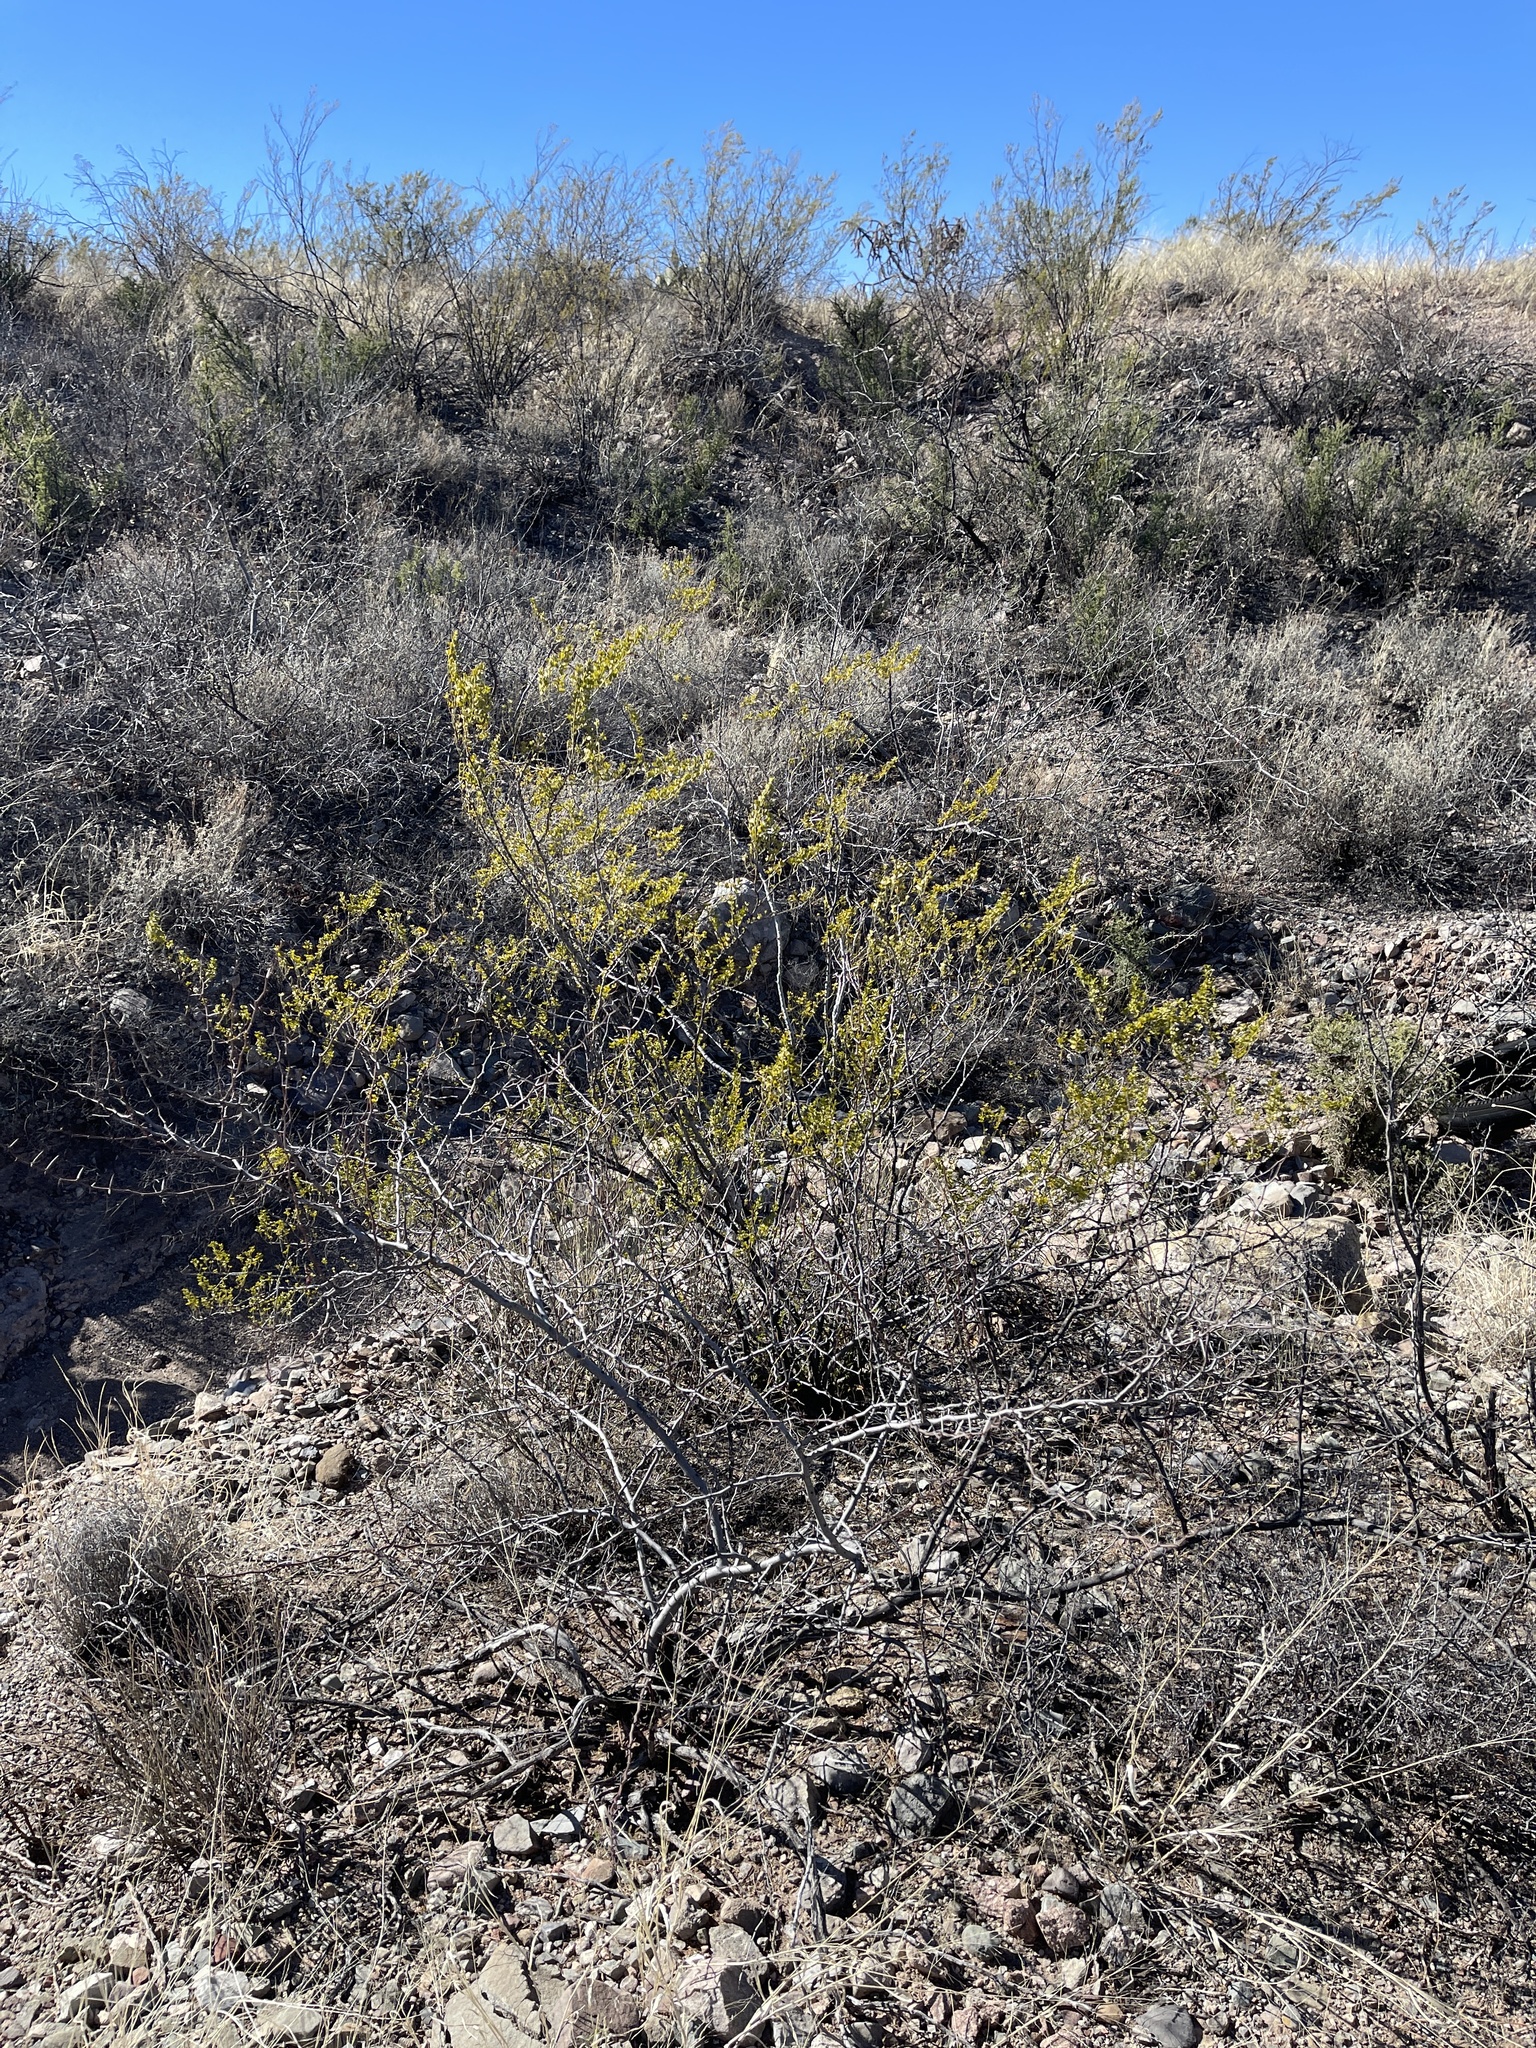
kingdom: Plantae
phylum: Tracheophyta
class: Magnoliopsida
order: Zygophyllales
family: Zygophyllaceae
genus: Larrea
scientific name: Larrea tridentata
